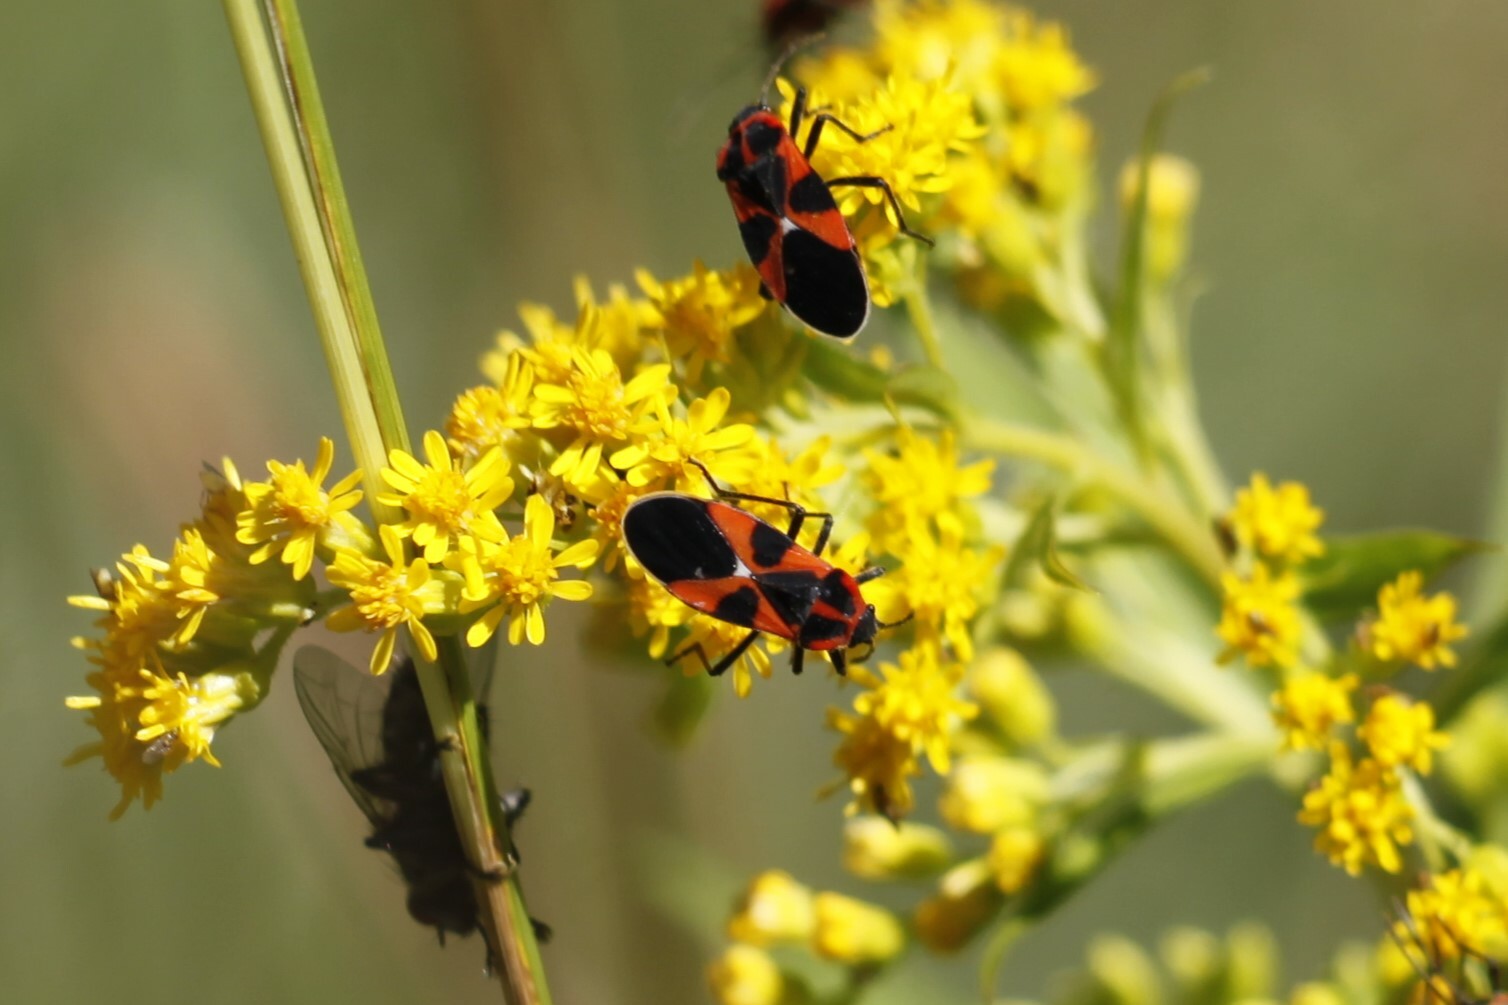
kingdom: Animalia
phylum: Arthropoda
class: Insecta
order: Hemiptera
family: Lygaeidae
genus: Tropidothorax
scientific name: Tropidothorax leucopterus
